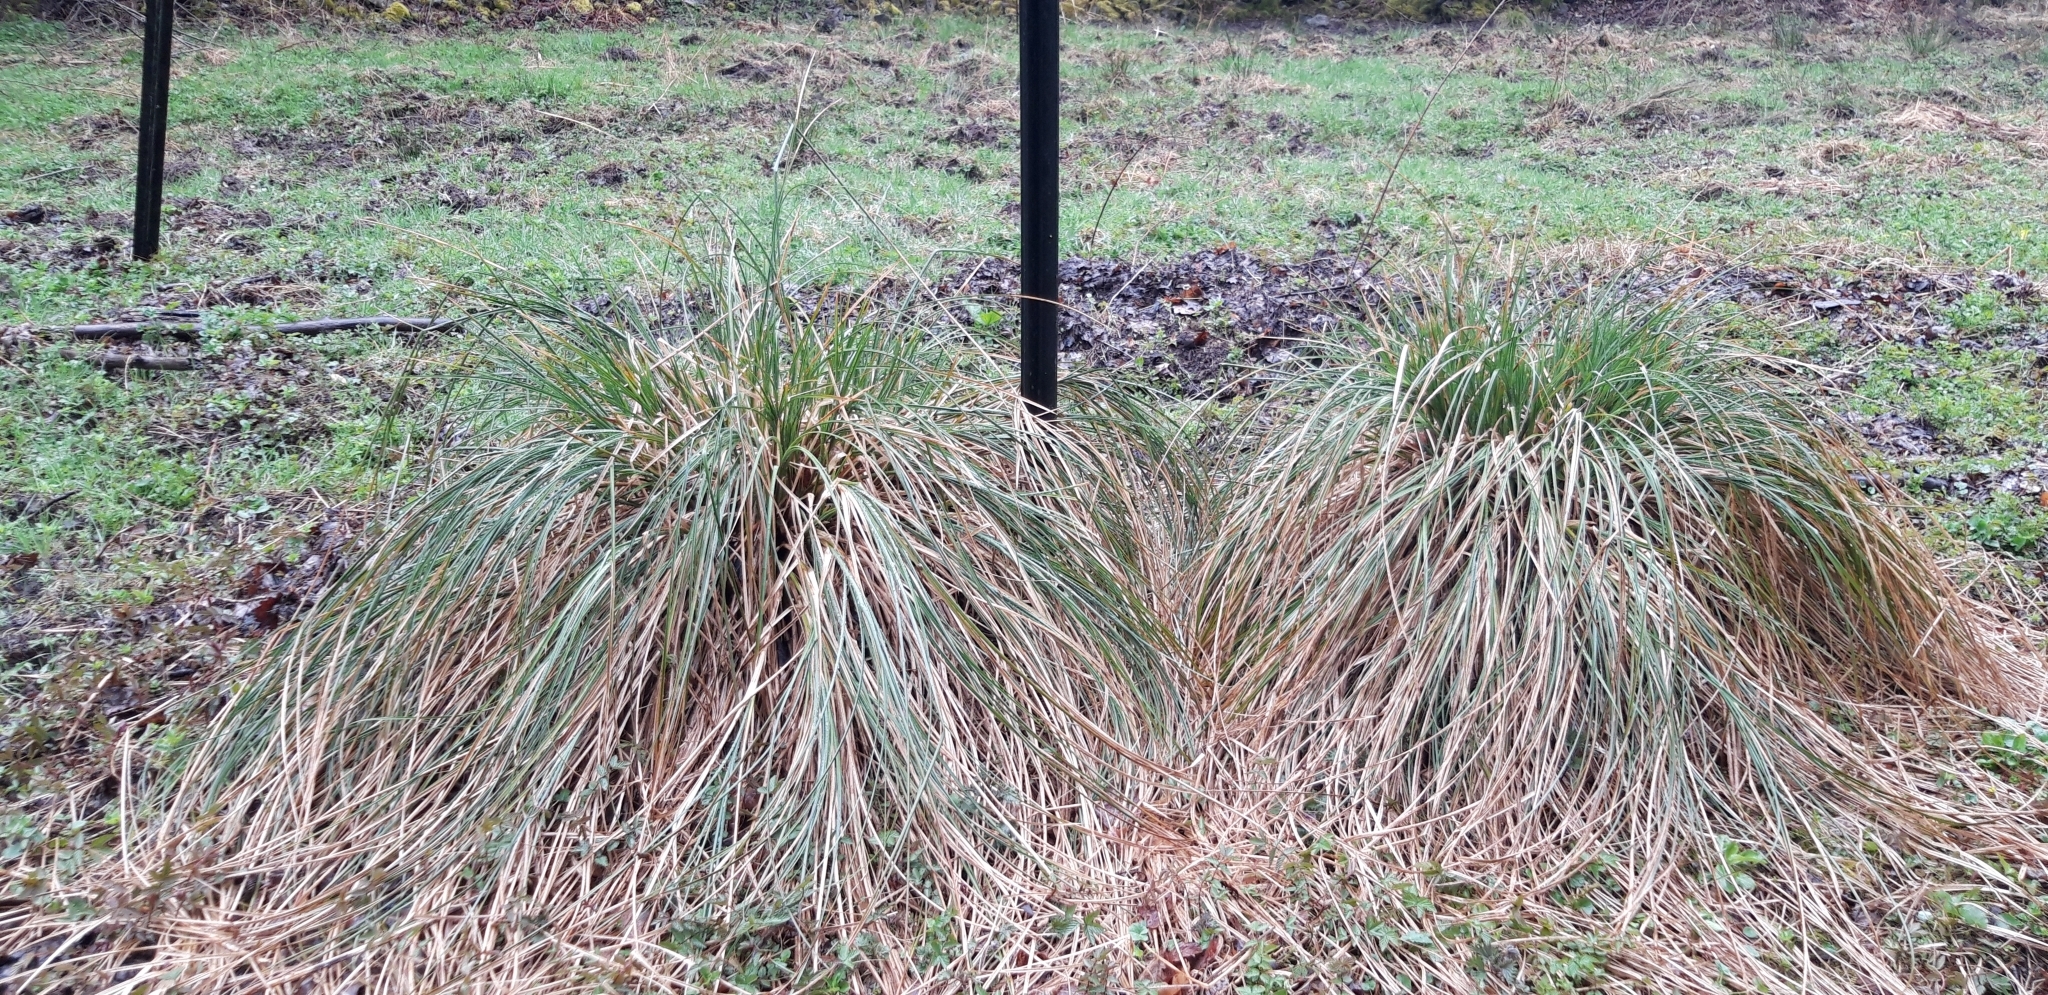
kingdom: Plantae
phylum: Tracheophyta
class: Liliopsida
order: Poales
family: Cyperaceae
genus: Carex
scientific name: Carex paniculata
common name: Greater tussock-sedge
